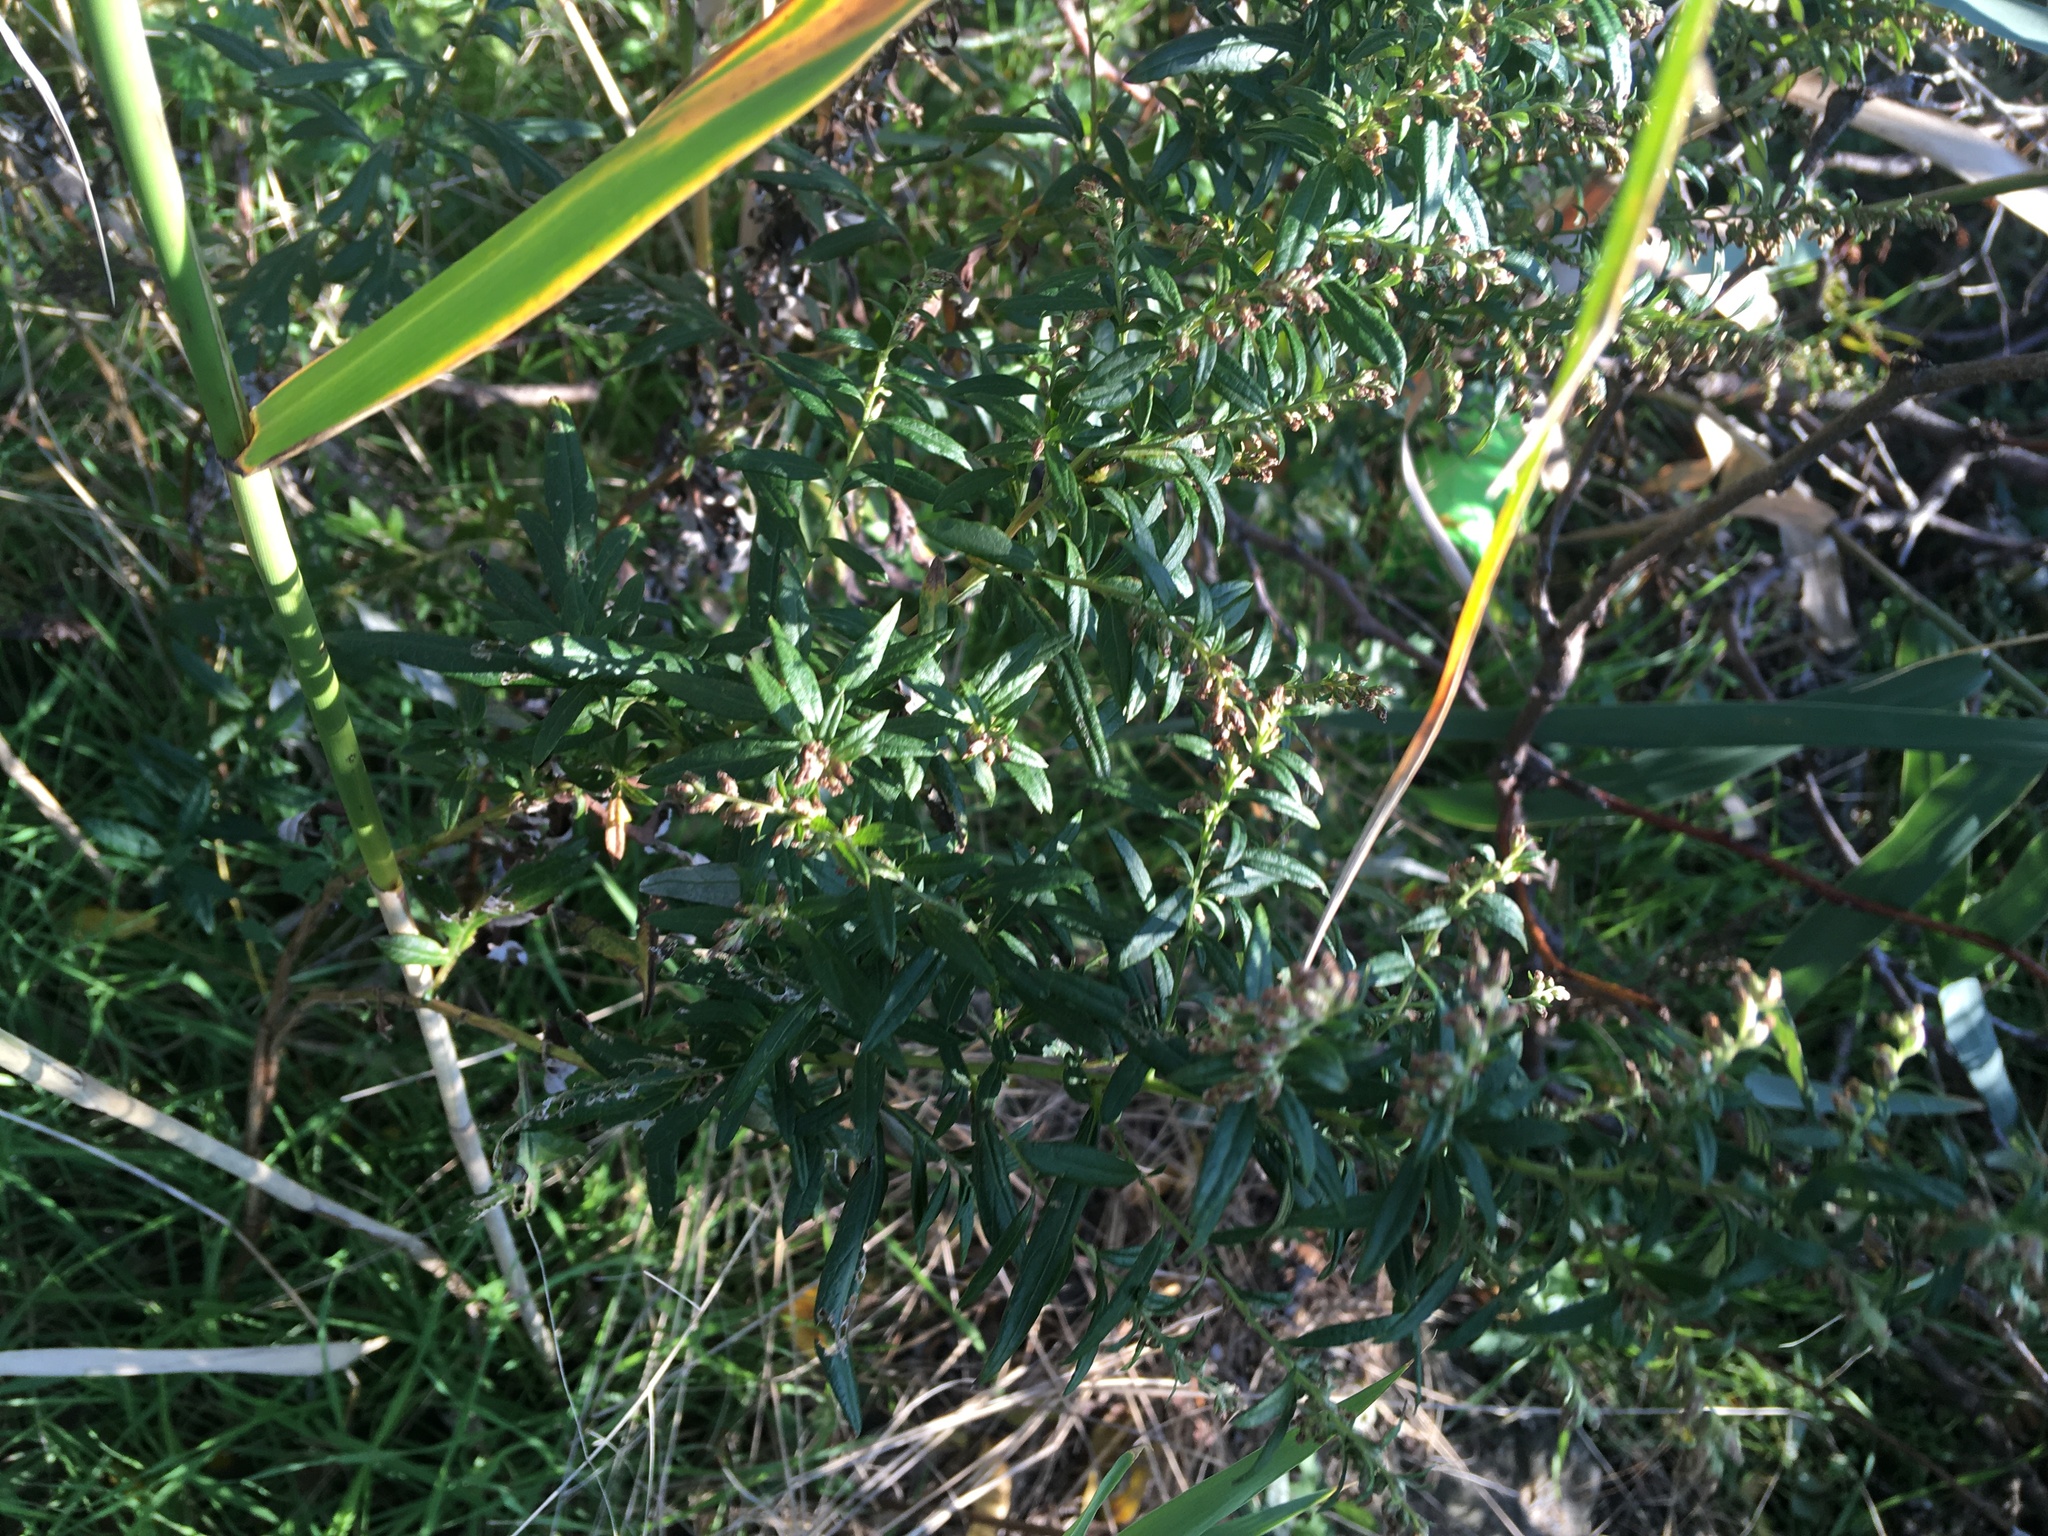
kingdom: Plantae
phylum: Tracheophyta
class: Magnoliopsida
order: Asterales
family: Asteraceae
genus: Artemisia
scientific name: Artemisia vulgaris
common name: Mugwort
